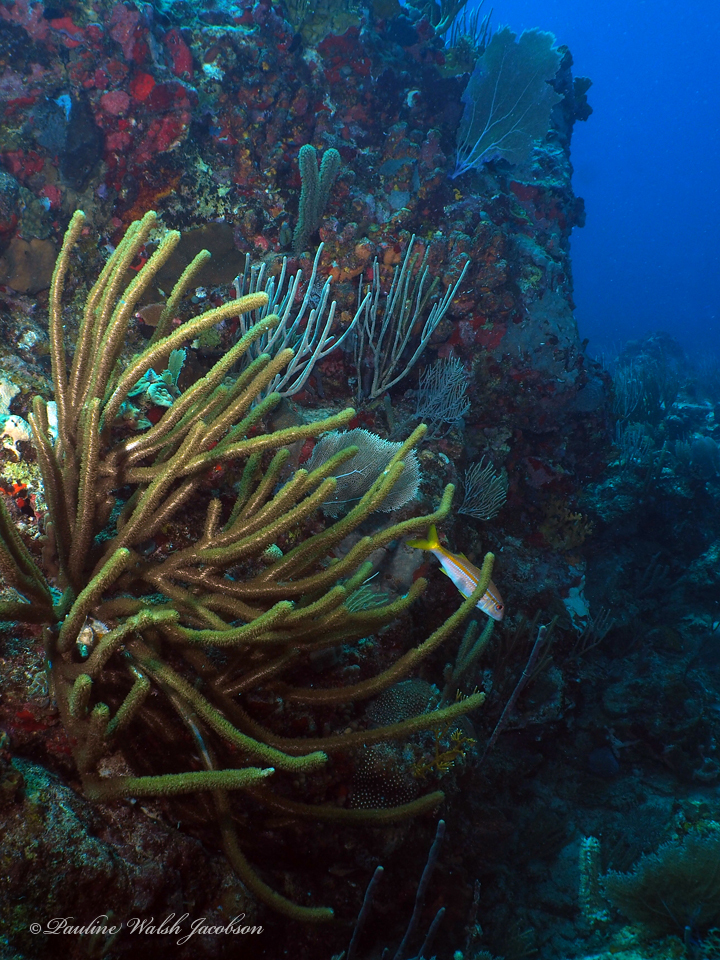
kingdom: Animalia
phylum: Chordata
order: Perciformes
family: Mullidae
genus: Mulloidichthys
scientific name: Mulloidichthys martinicus
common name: Yellow goatfish
